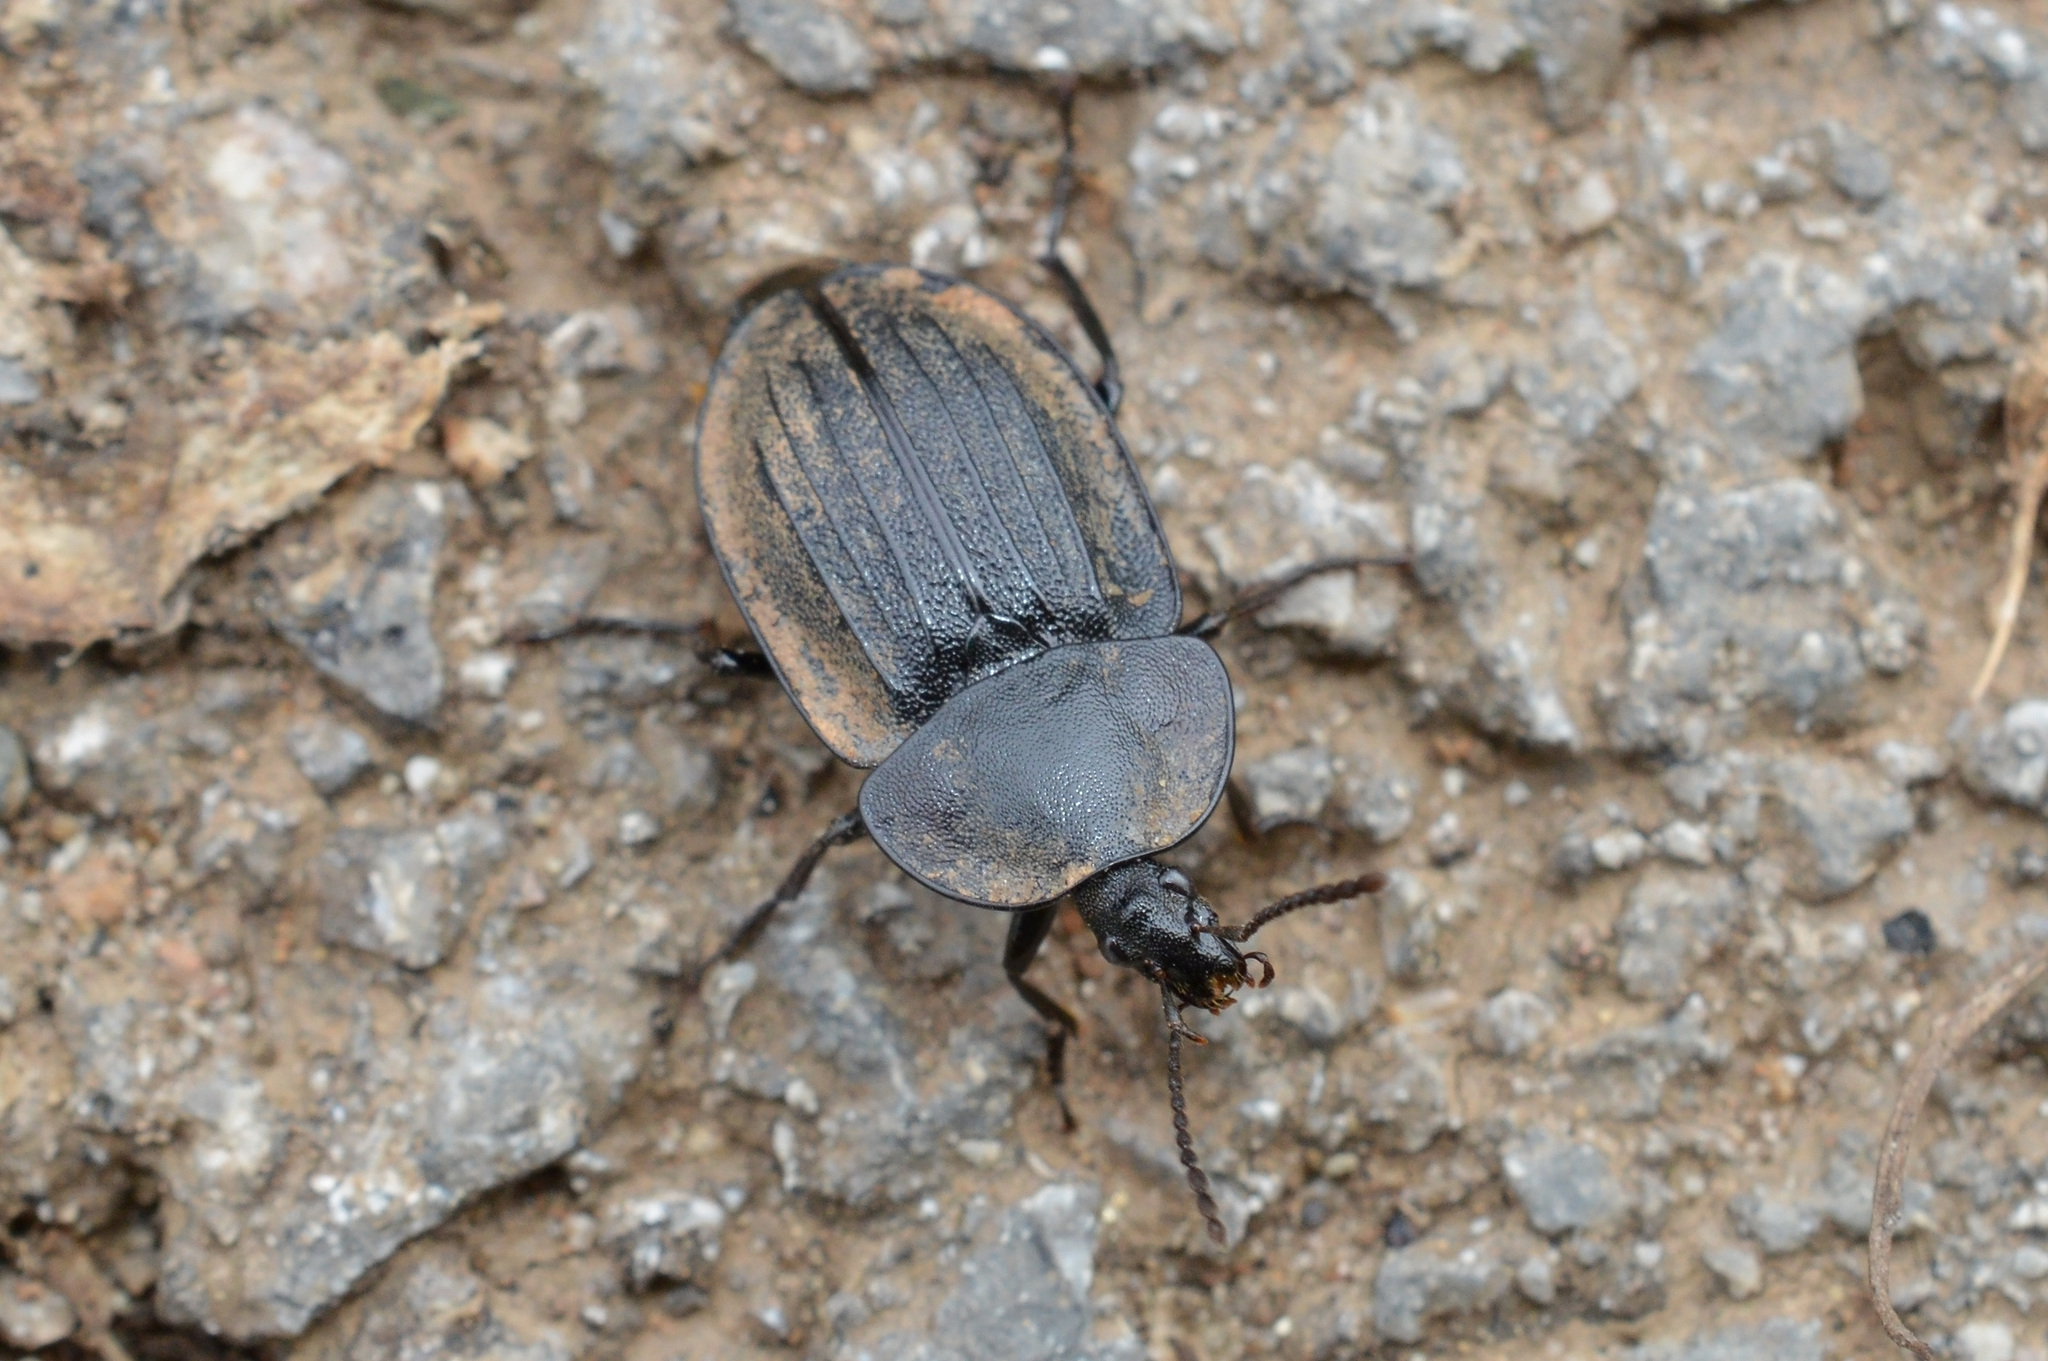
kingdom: Animalia
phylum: Arthropoda
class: Insecta
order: Coleoptera
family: Staphylinidae
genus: Silpha
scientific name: Silpha atrata
